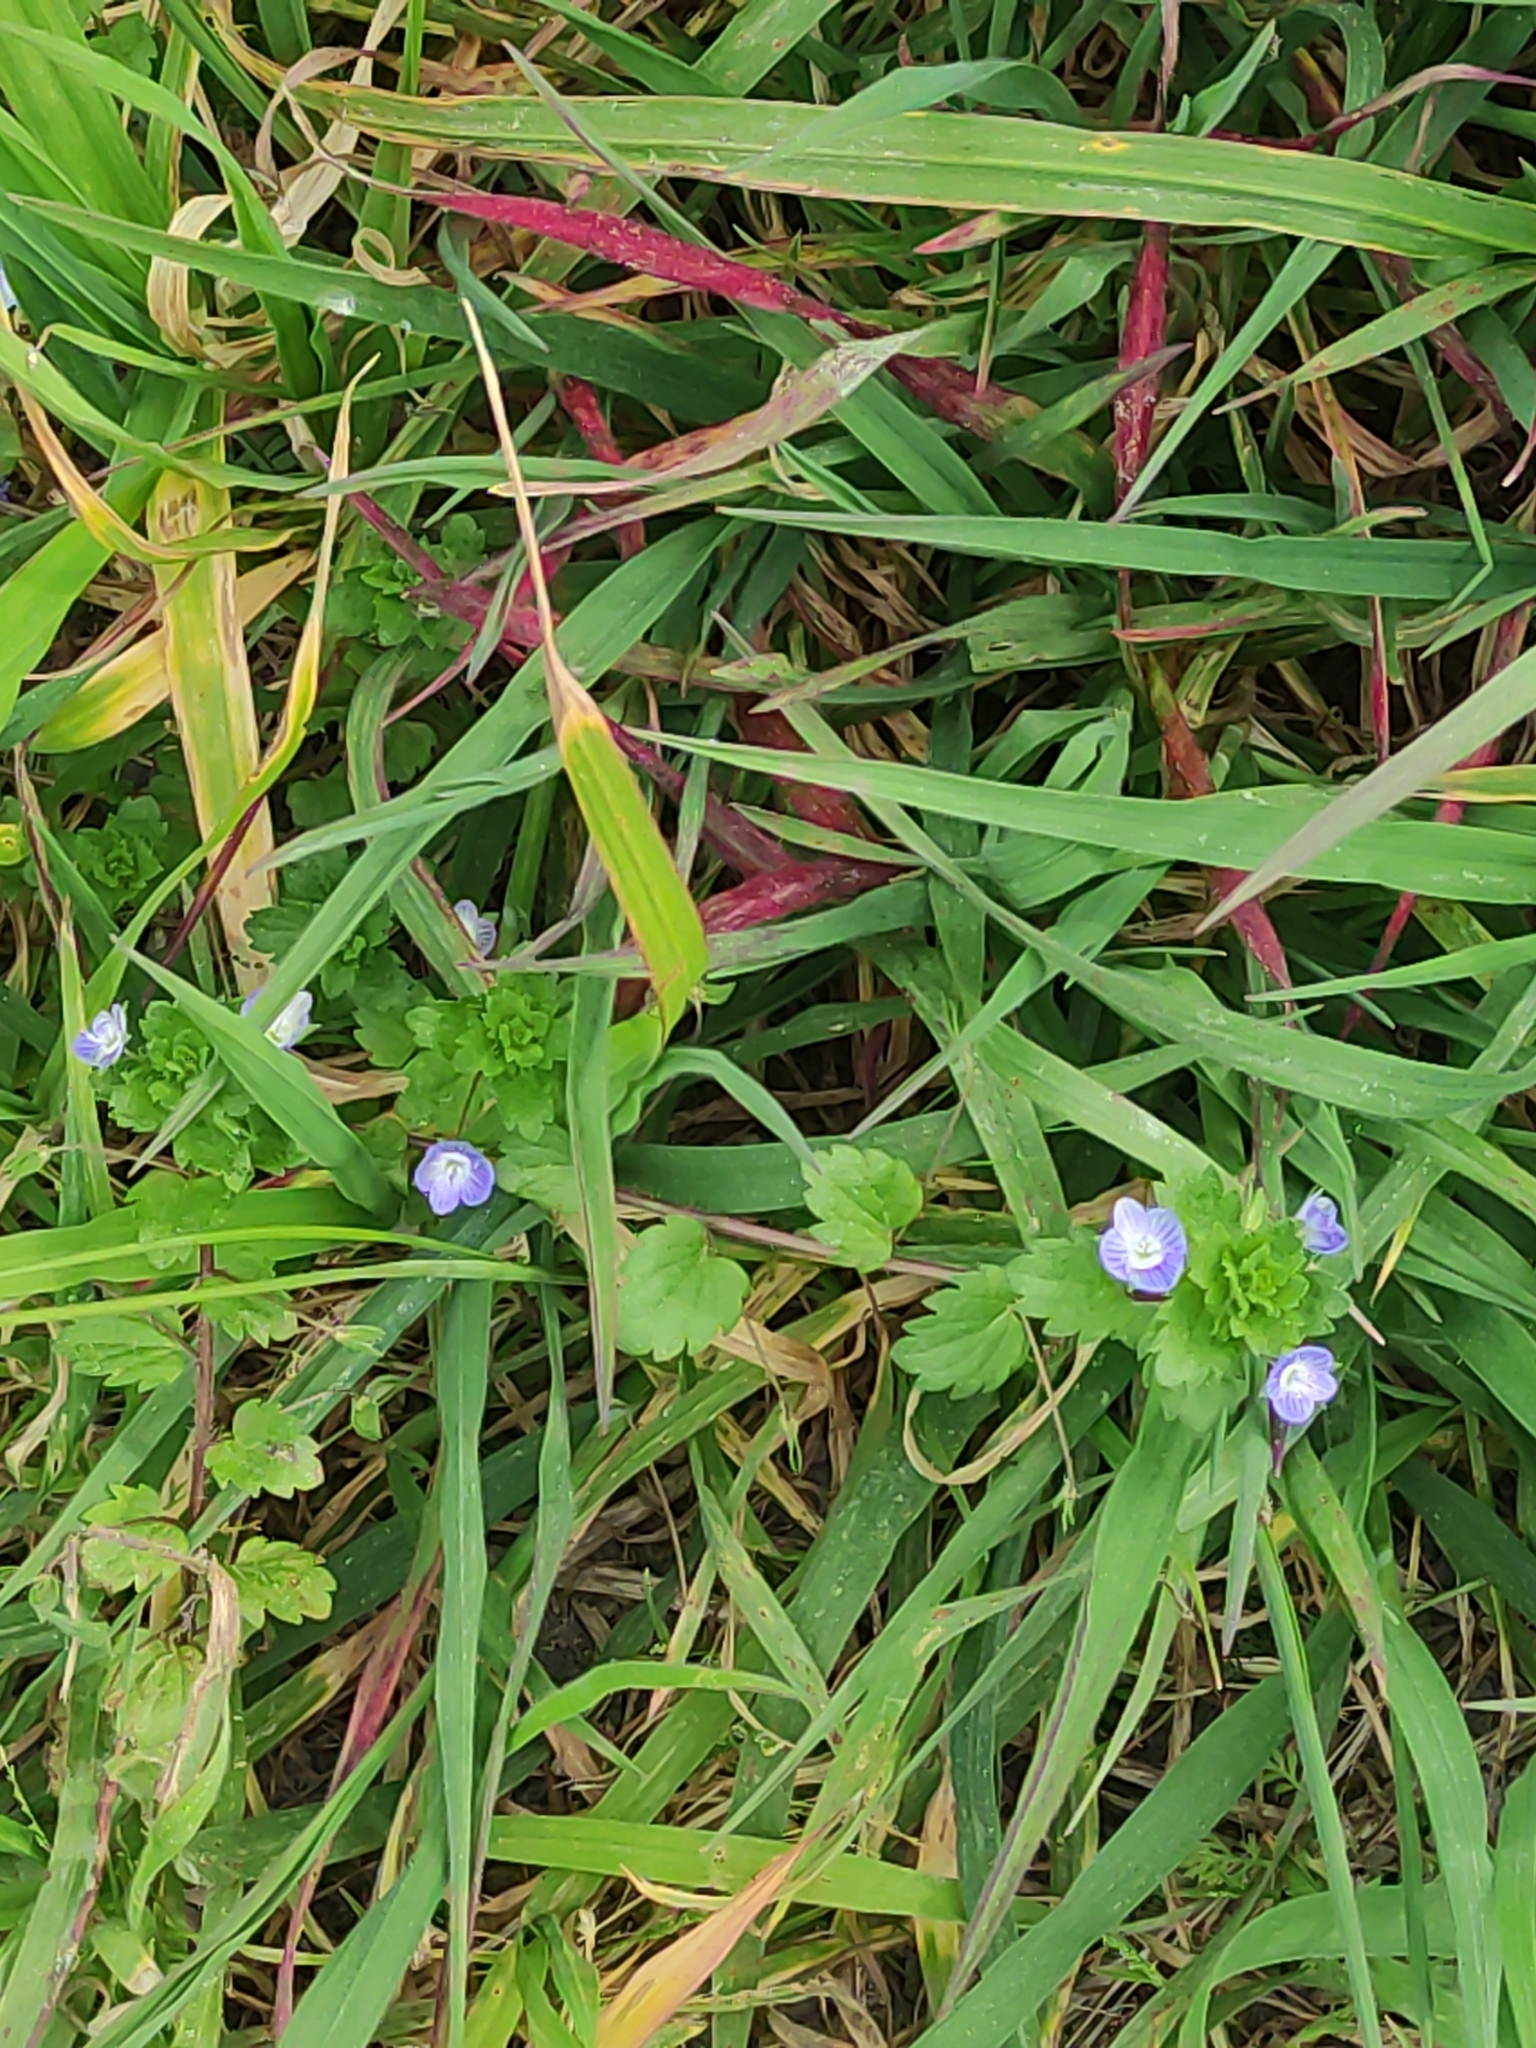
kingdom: Plantae
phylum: Tracheophyta
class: Magnoliopsida
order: Lamiales
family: Plantaginaceae
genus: Veronica
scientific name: Veronica persica
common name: Common field-speedwell
